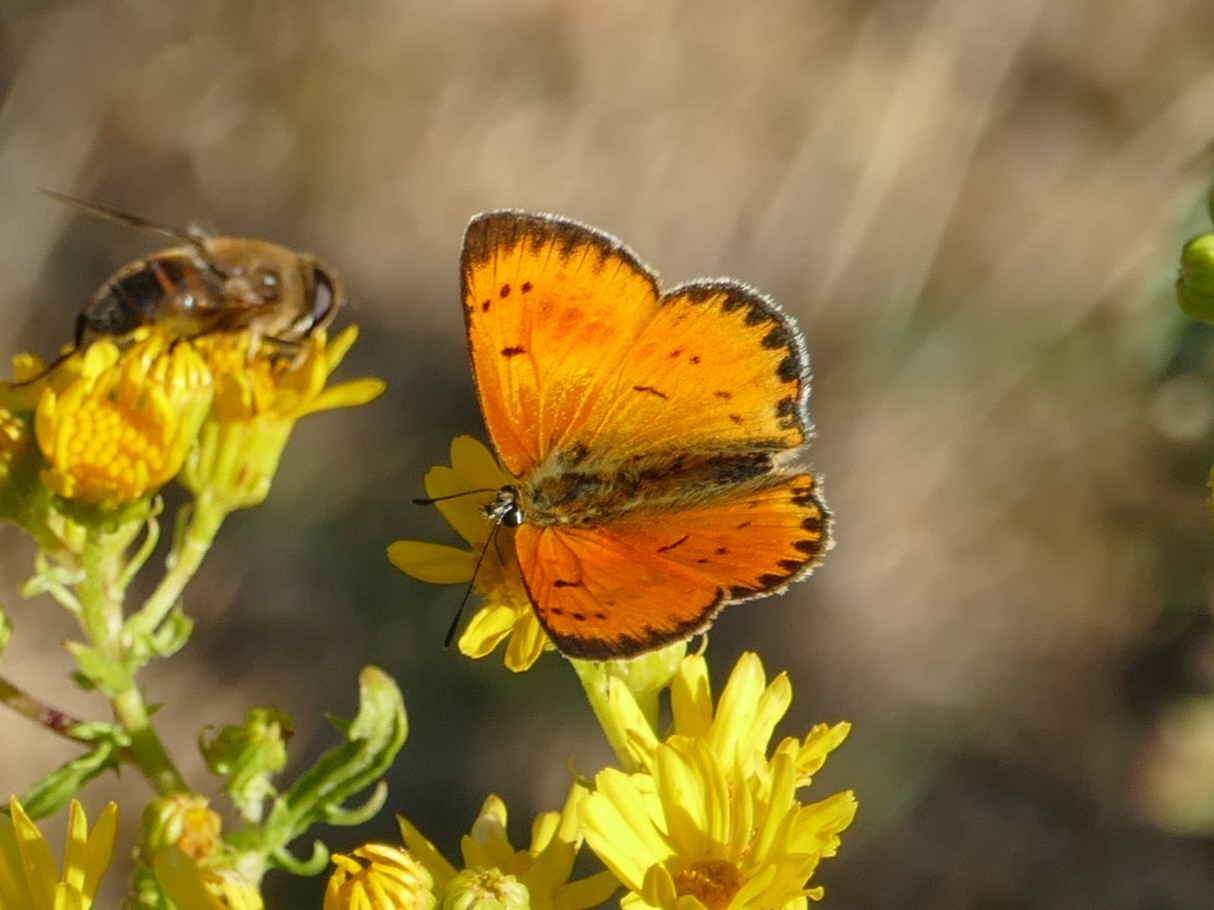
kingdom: Animalia
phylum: Arthropoda
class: Insecta
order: Lepidoptera
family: Lycaenidae
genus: Lycaena
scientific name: Lycaena virgaureae
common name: Scarce copper
